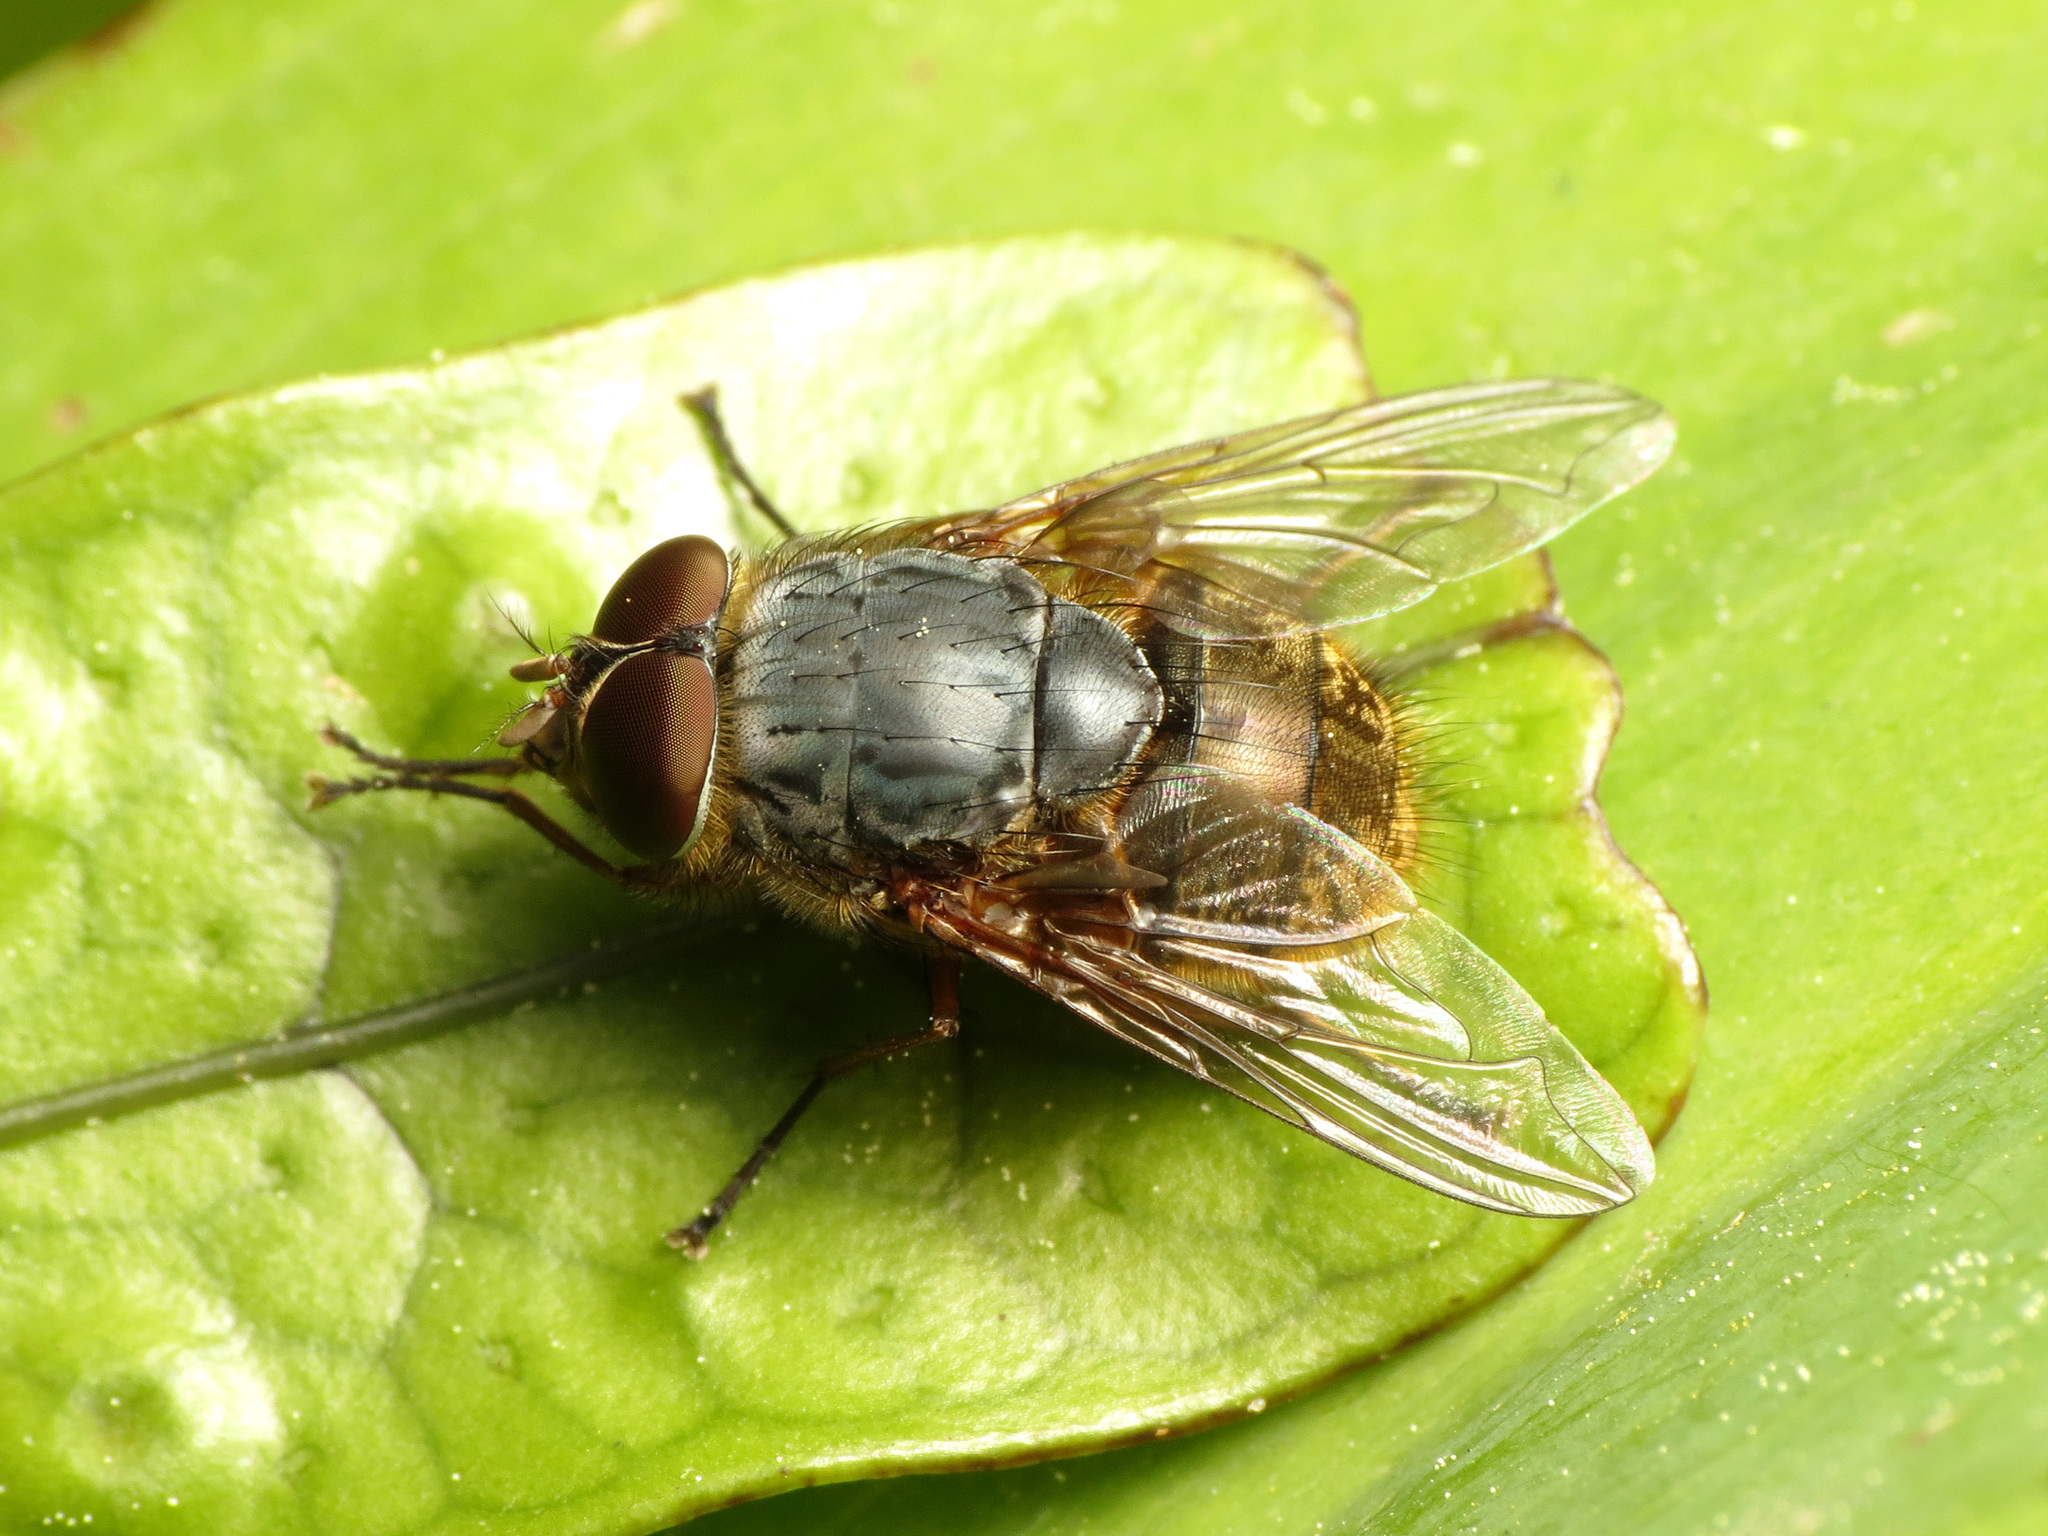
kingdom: Animalia
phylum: Arthropoda
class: Insecta
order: Diptera
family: Calliphoridae
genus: Calliphora
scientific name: Calliphora stygia
